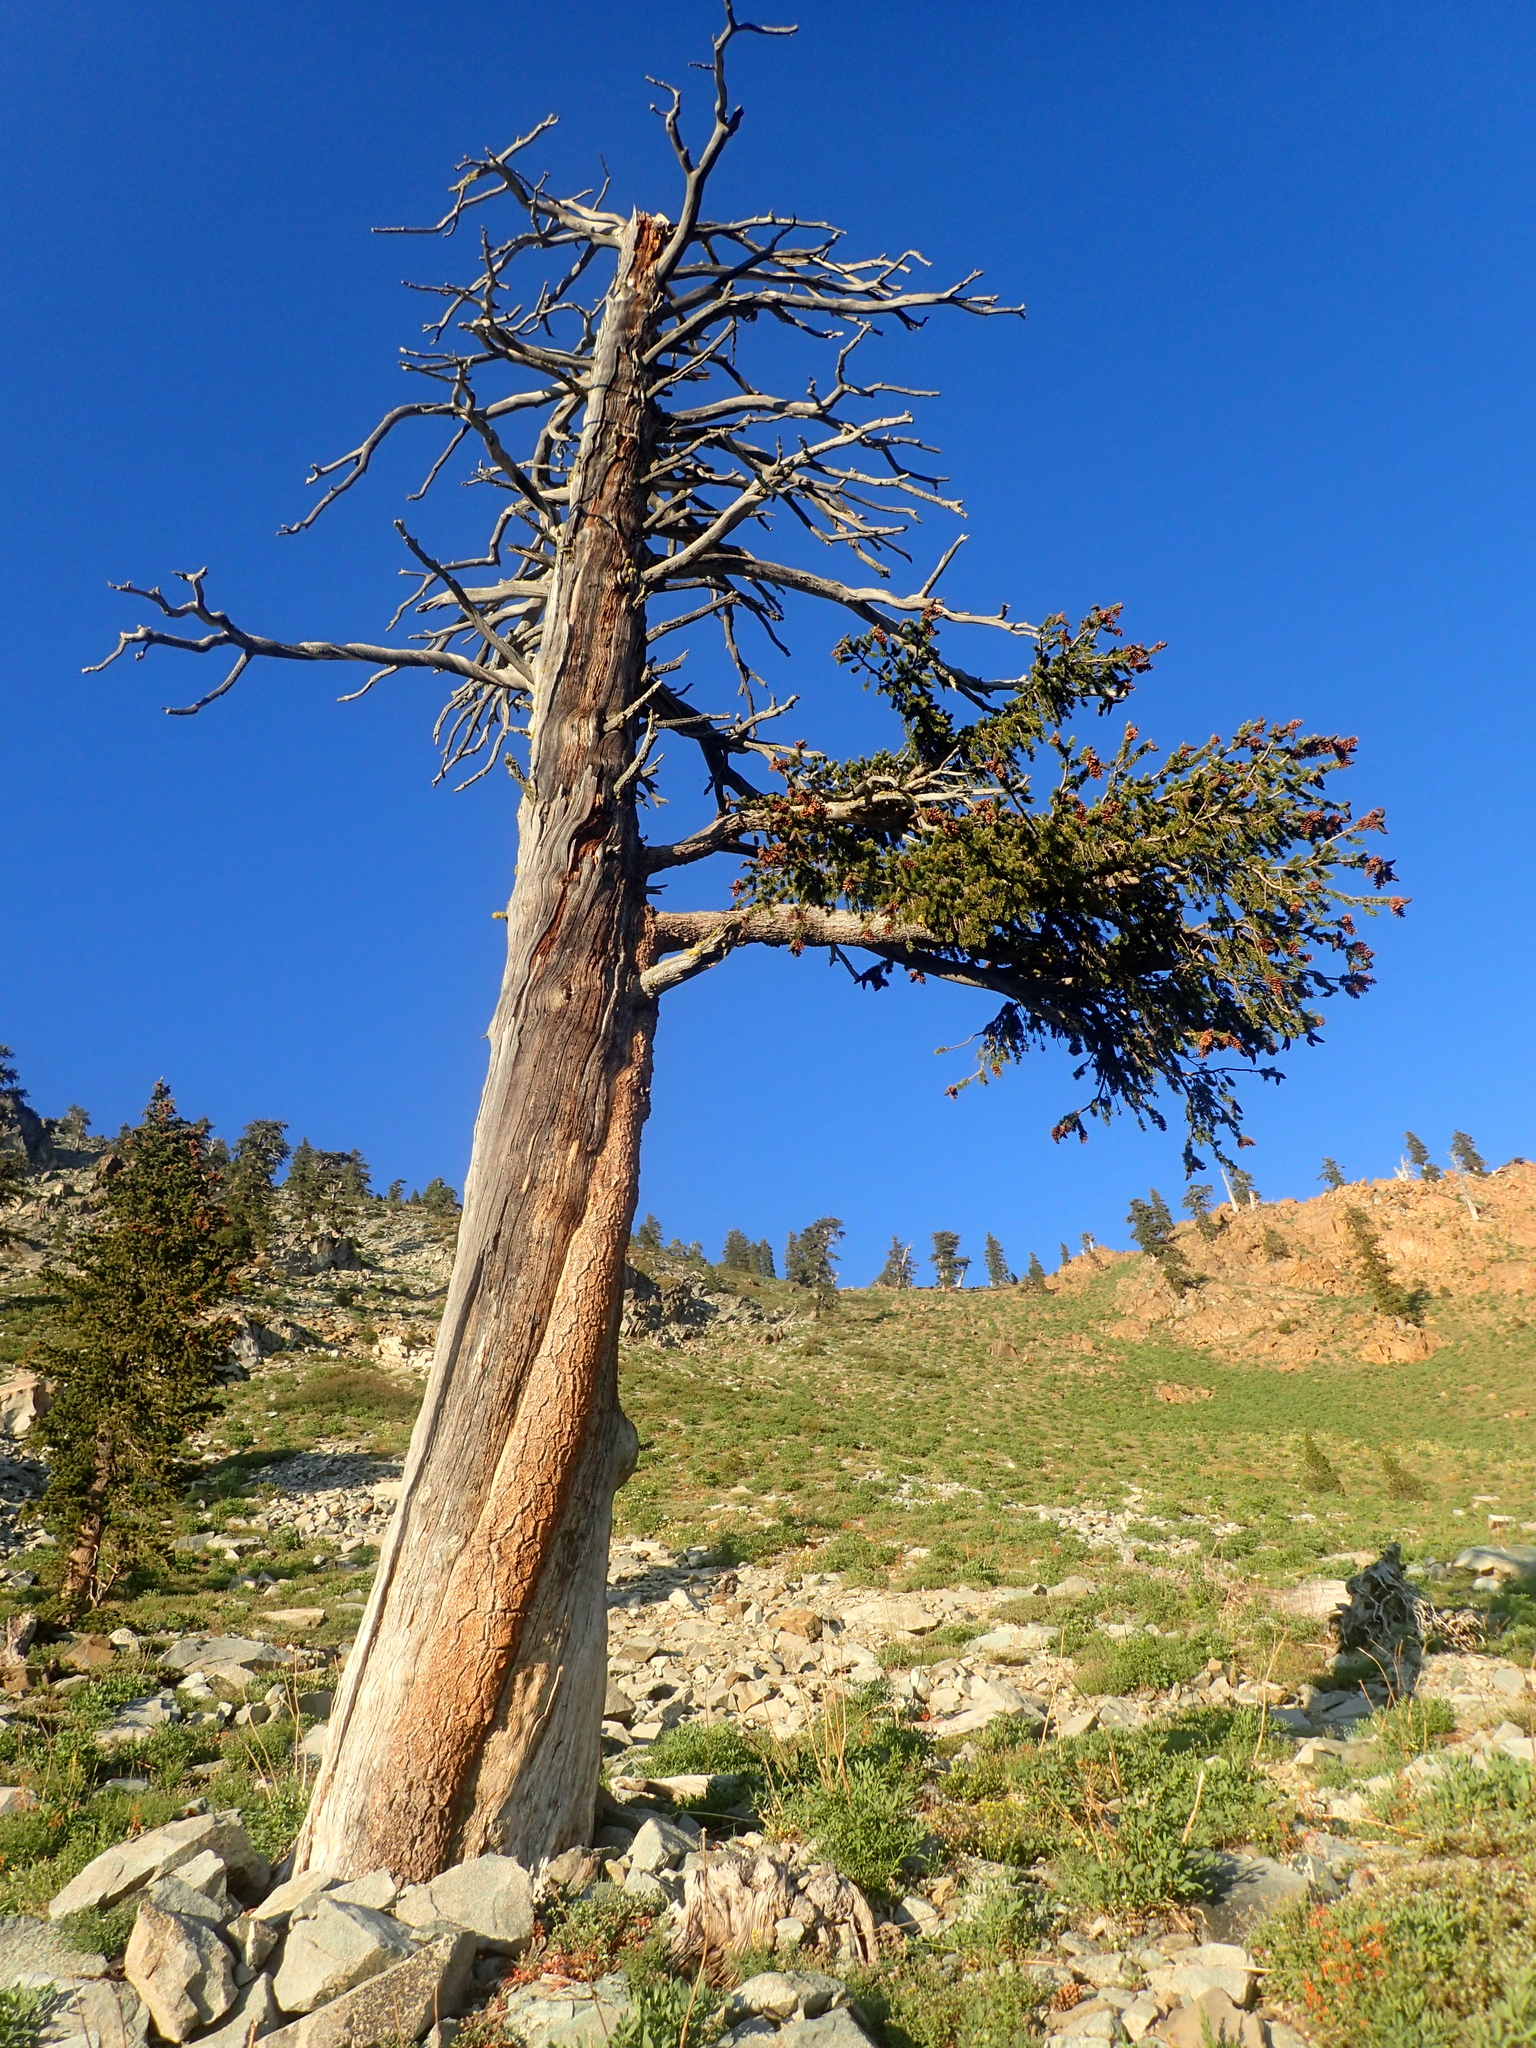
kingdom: Plantae
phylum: Tracheophyta
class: Pinopsida
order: Pinales
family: Pinaceae
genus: Pinus
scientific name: Pinus balfouriana
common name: Foxtail pine
